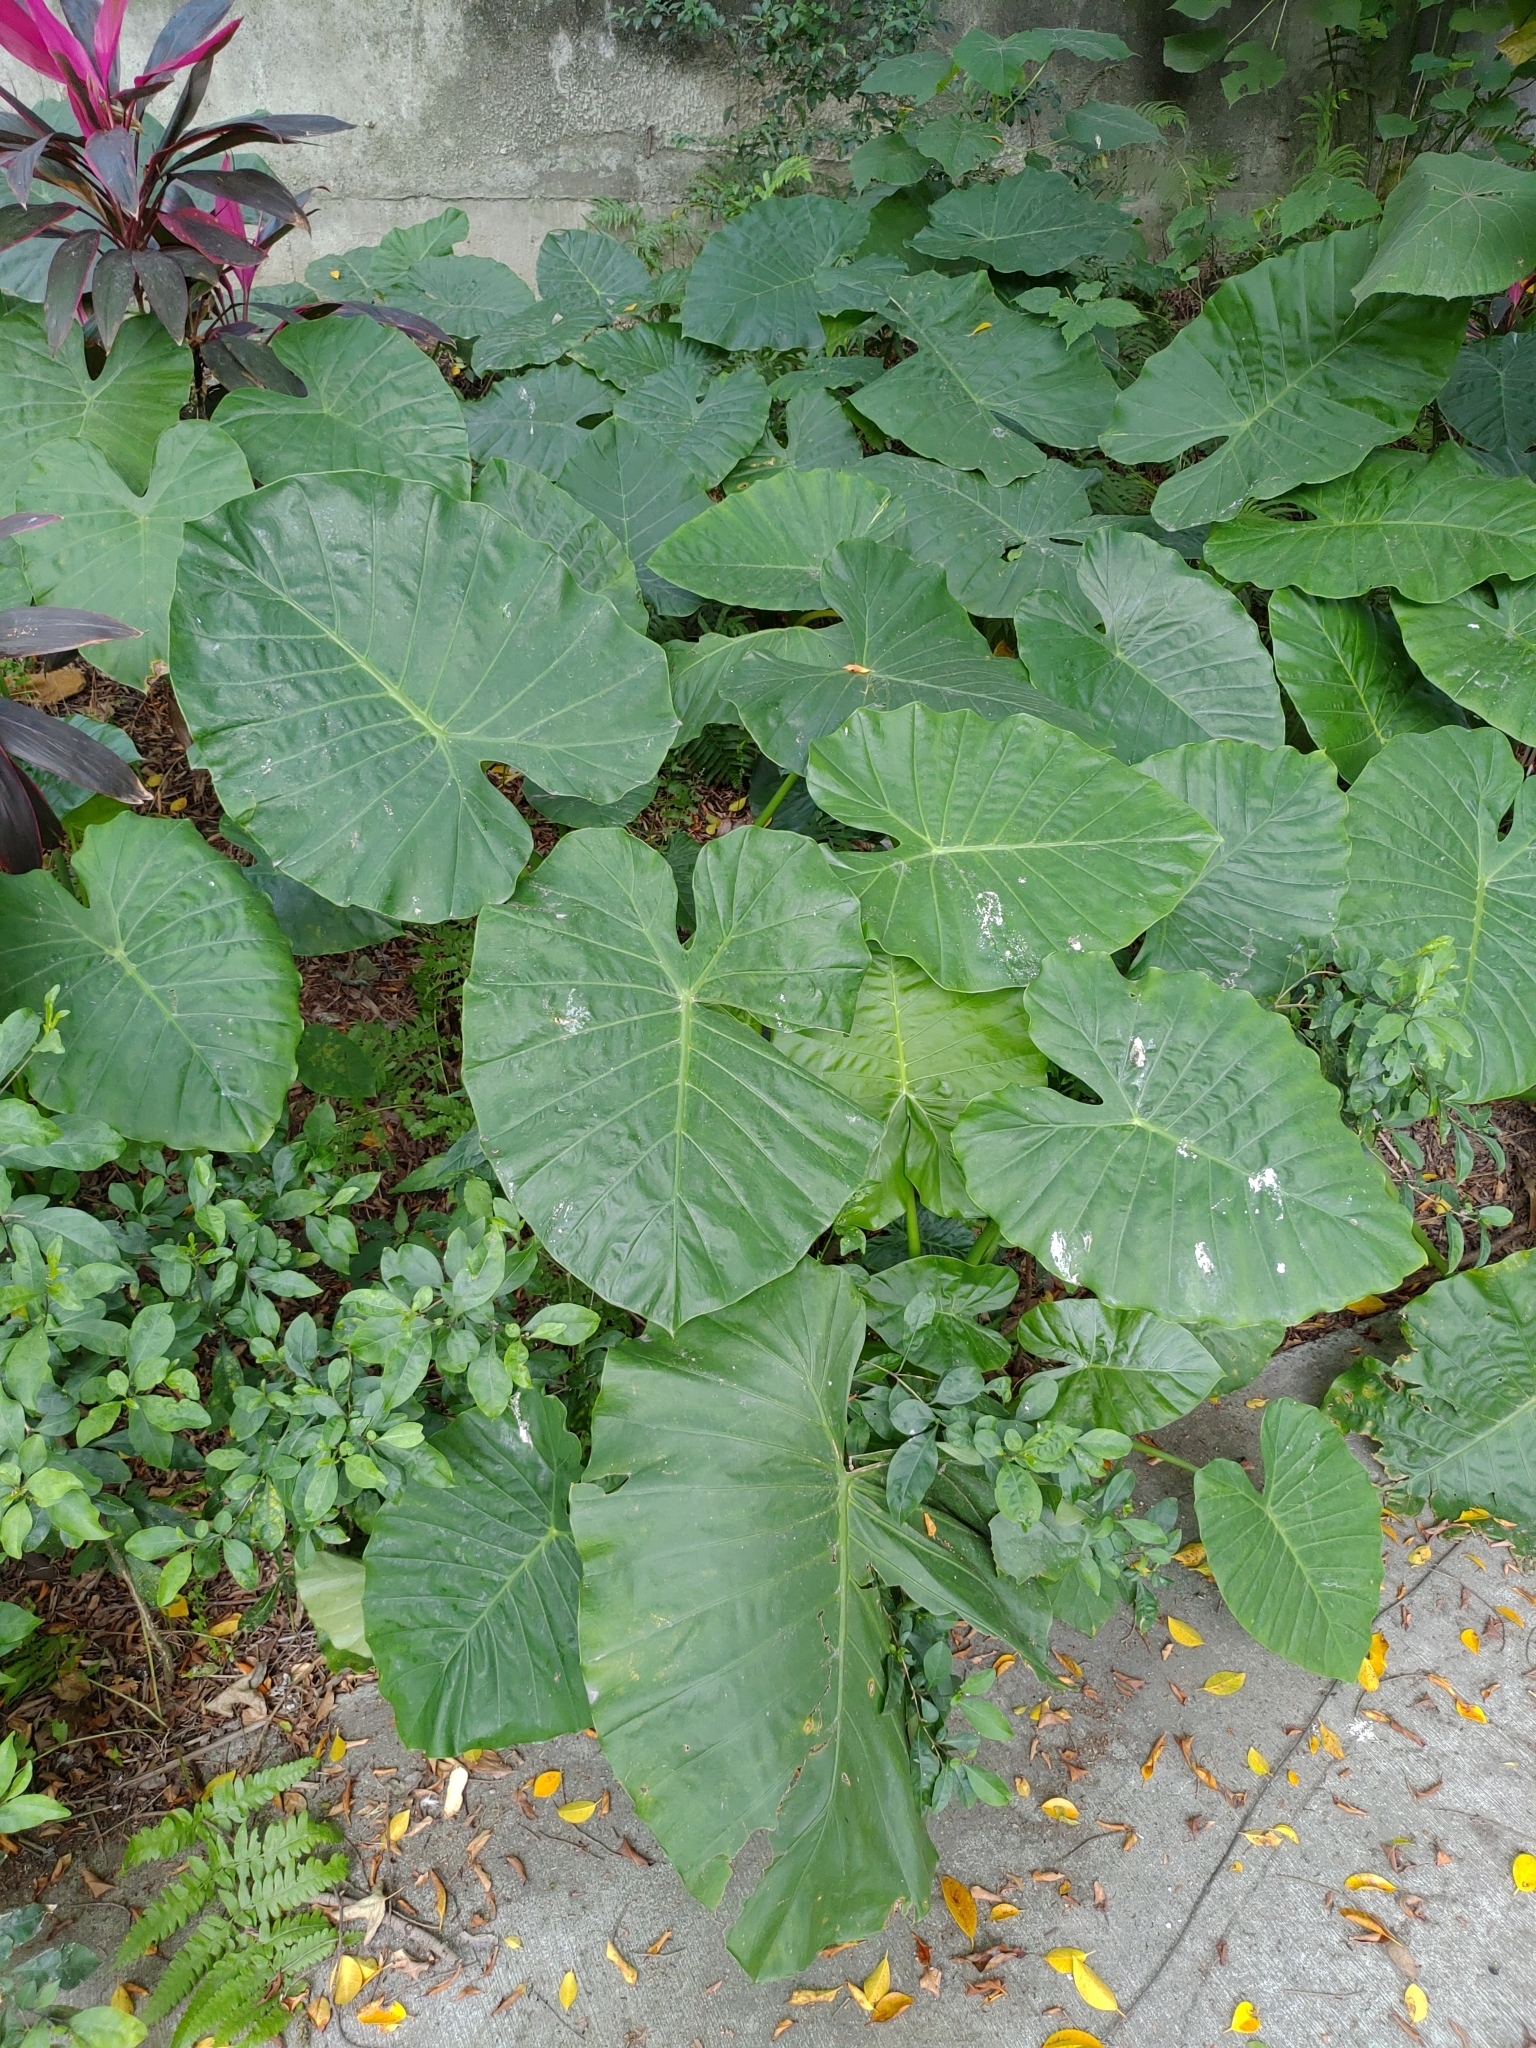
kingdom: Plantae
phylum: Tracheophyta
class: Liliopsida
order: Alismatales
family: Araceae
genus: Alocasia
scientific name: Alocasia odora
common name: Asian taro
